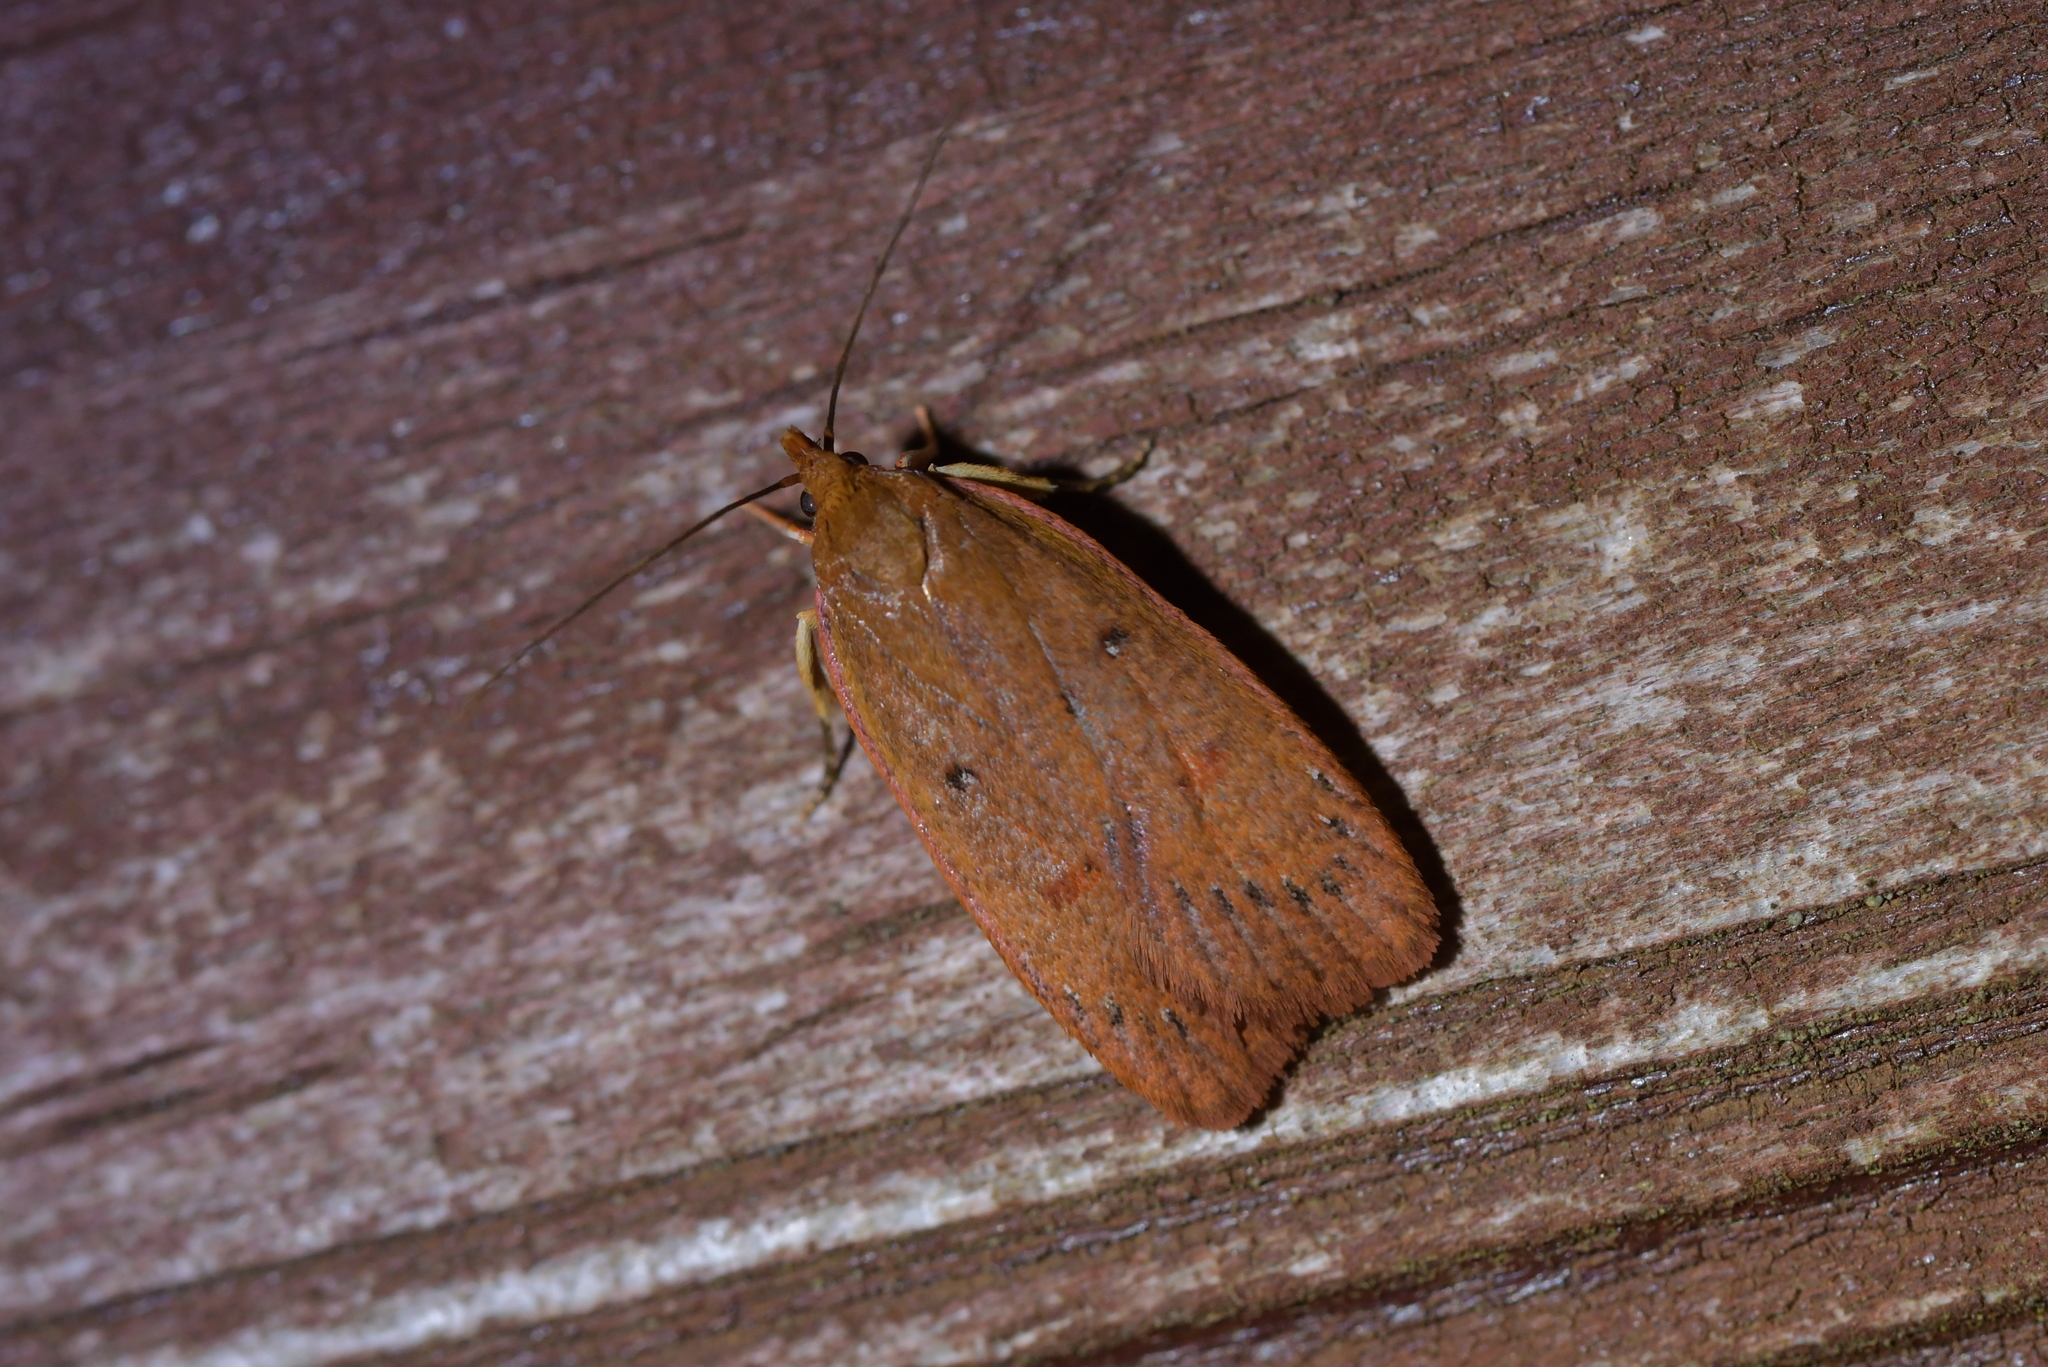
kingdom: Animalia
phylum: Arthropoda
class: Insecta
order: Lepidoptera
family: Depressariidae
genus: Cryptolechia
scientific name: Cryptolechia rhodobapta
